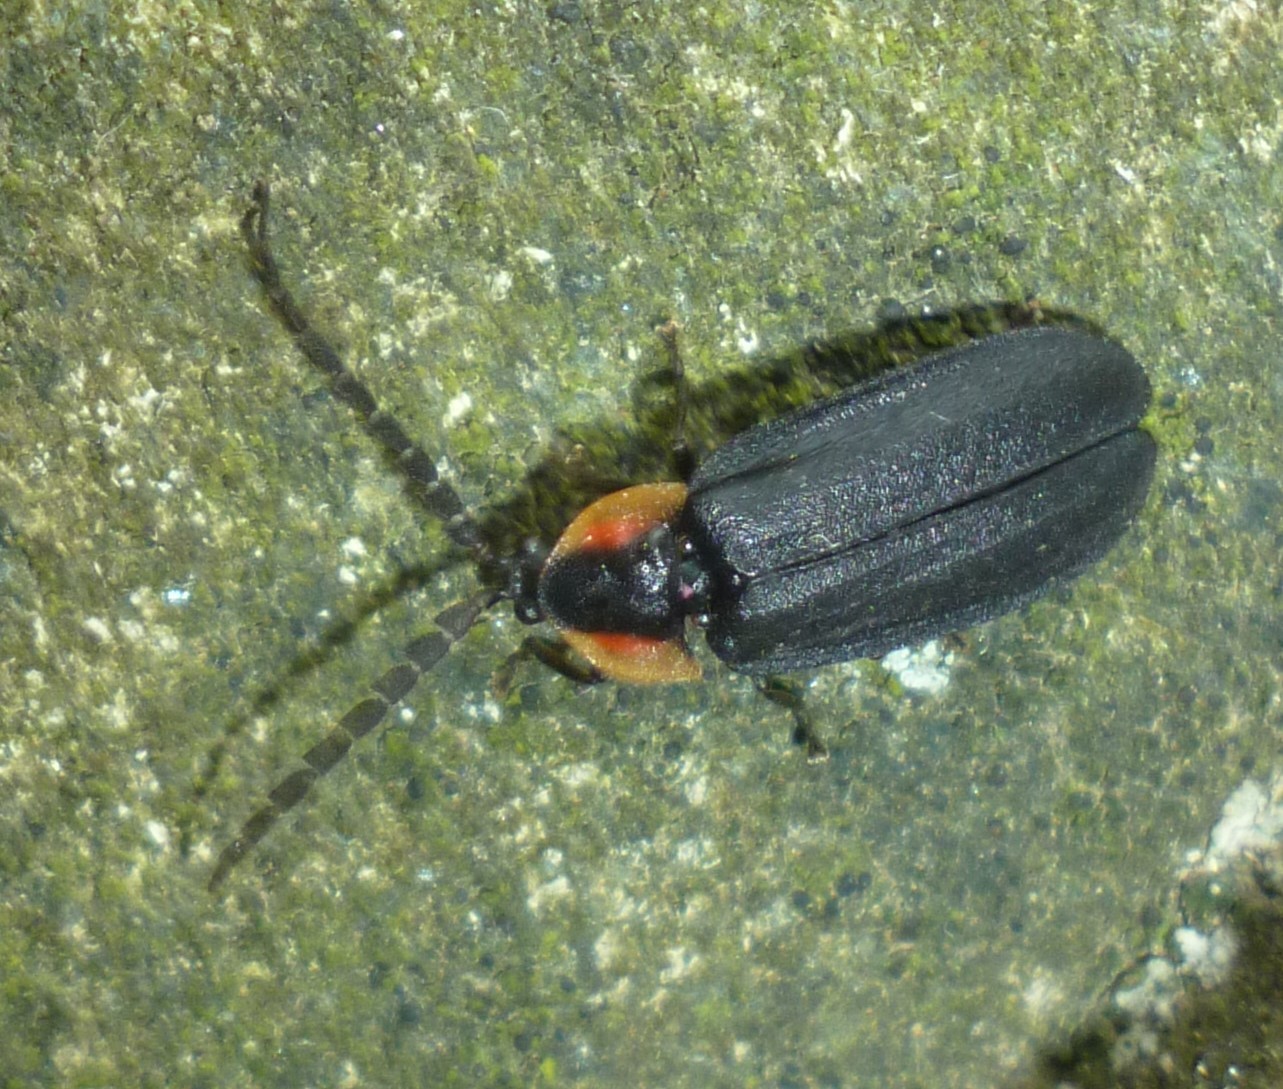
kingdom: Animalia
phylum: Arthropoda
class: Insecta
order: Coleoptera
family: Lampyridae
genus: Lucidota
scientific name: Lucidota atra
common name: Black firefly
